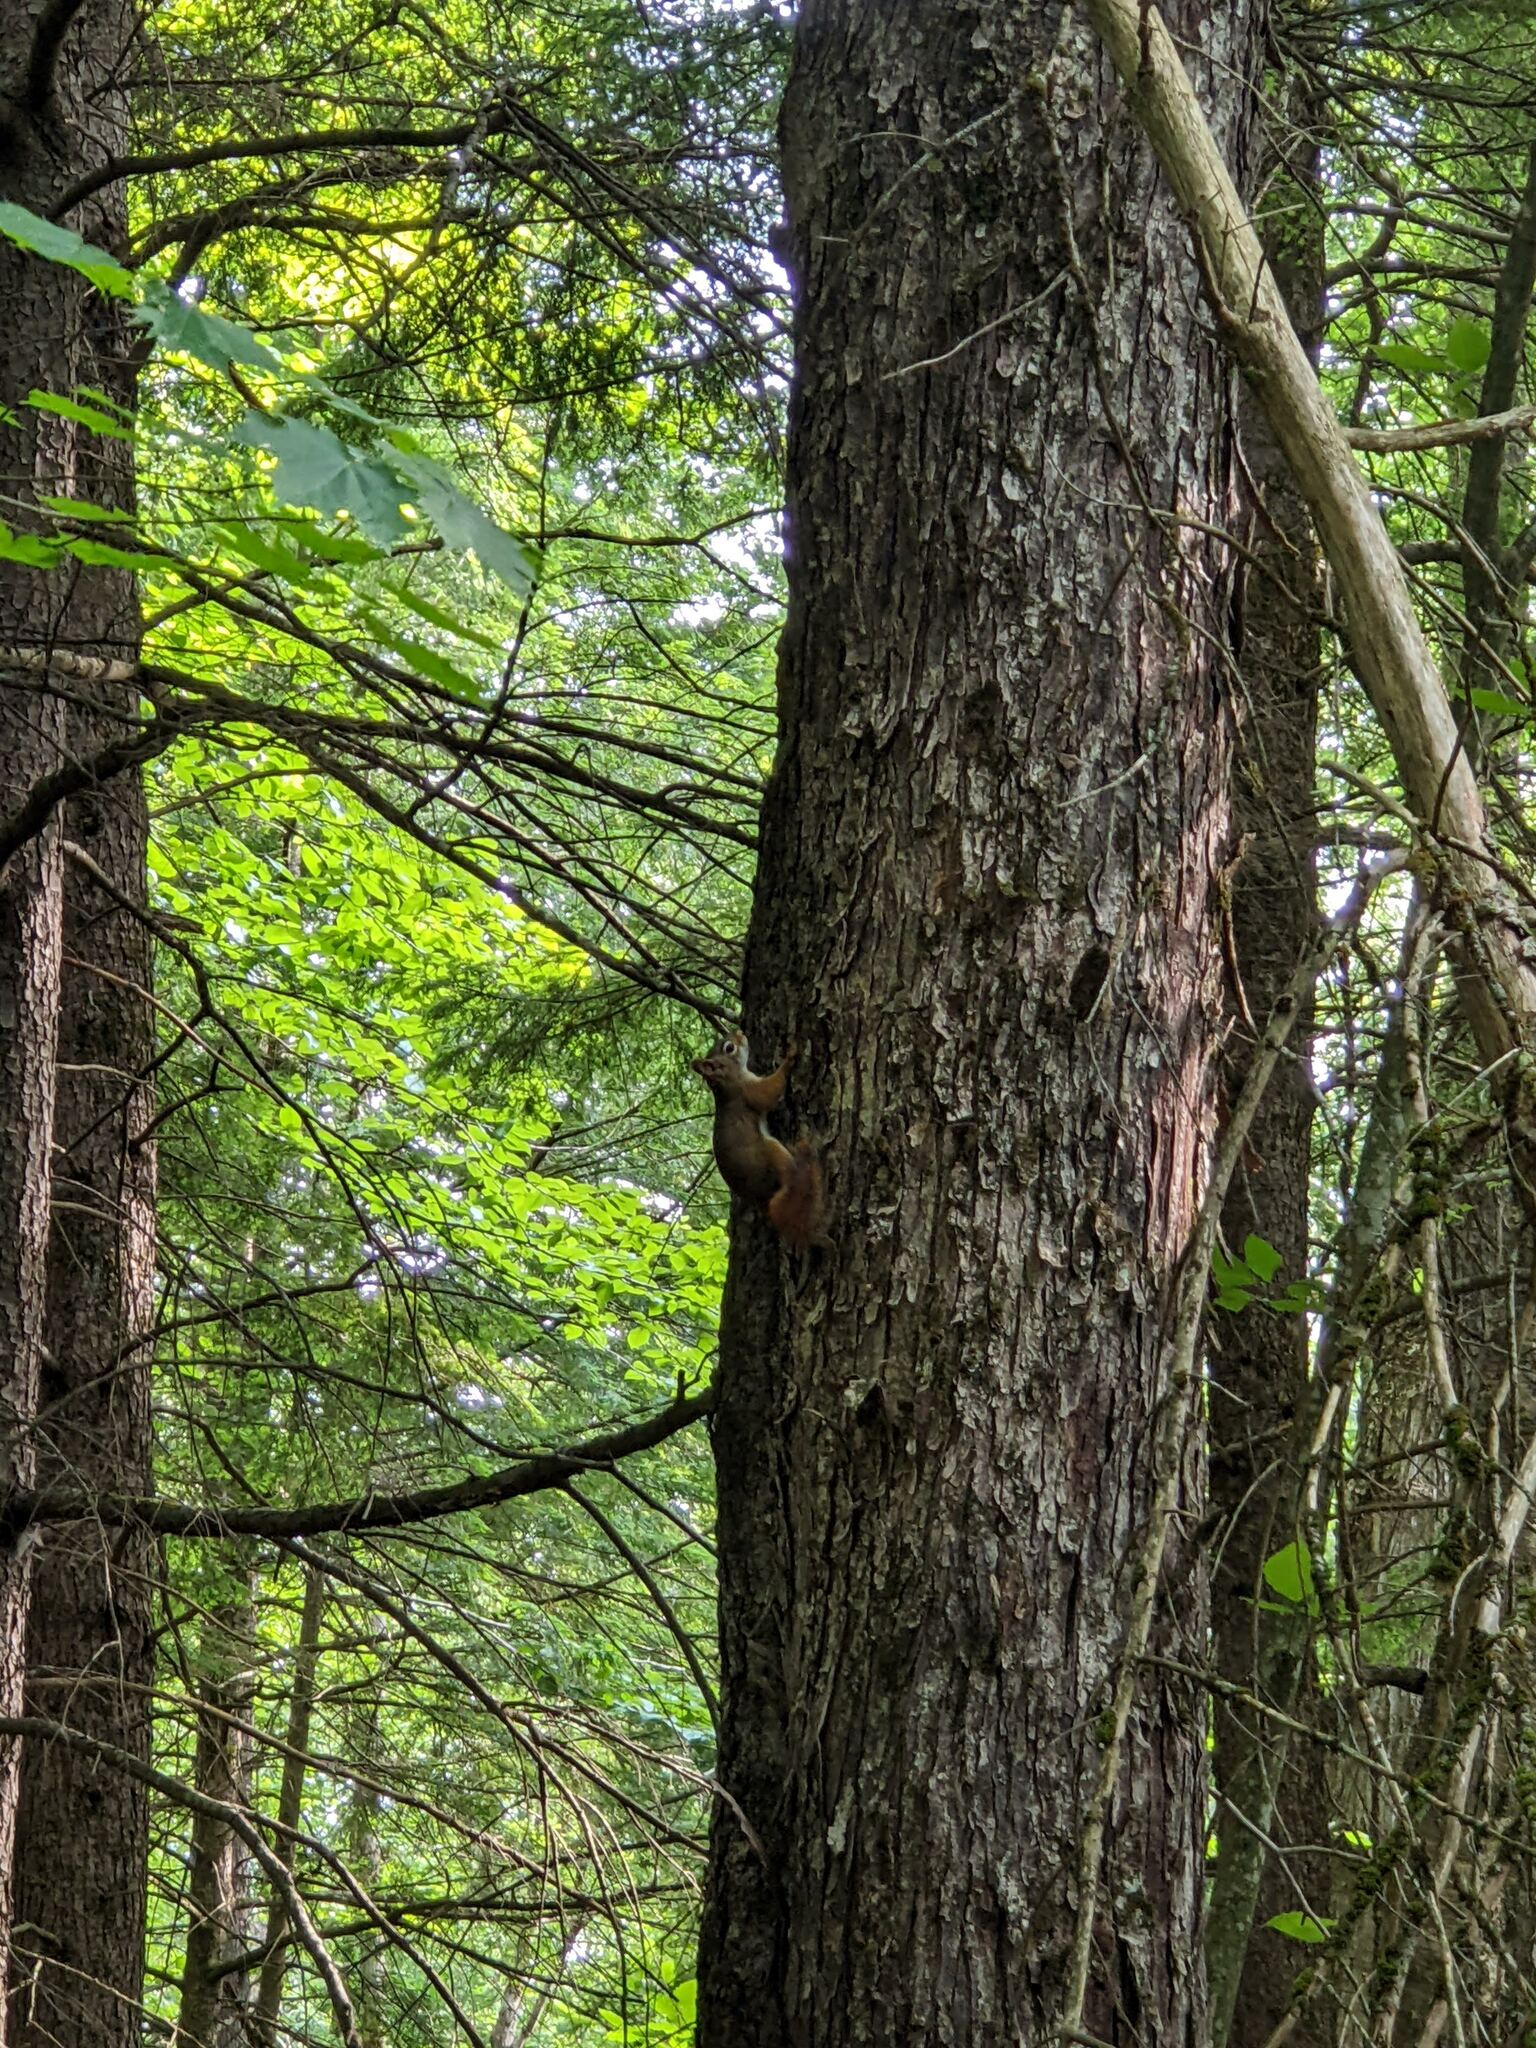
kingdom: Animalia
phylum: Chordata
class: Mammalia
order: Rodentia
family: Sciuridae
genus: Tamiasciurus
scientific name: Tamiasciurus hudsonicus
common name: Red squirrel
